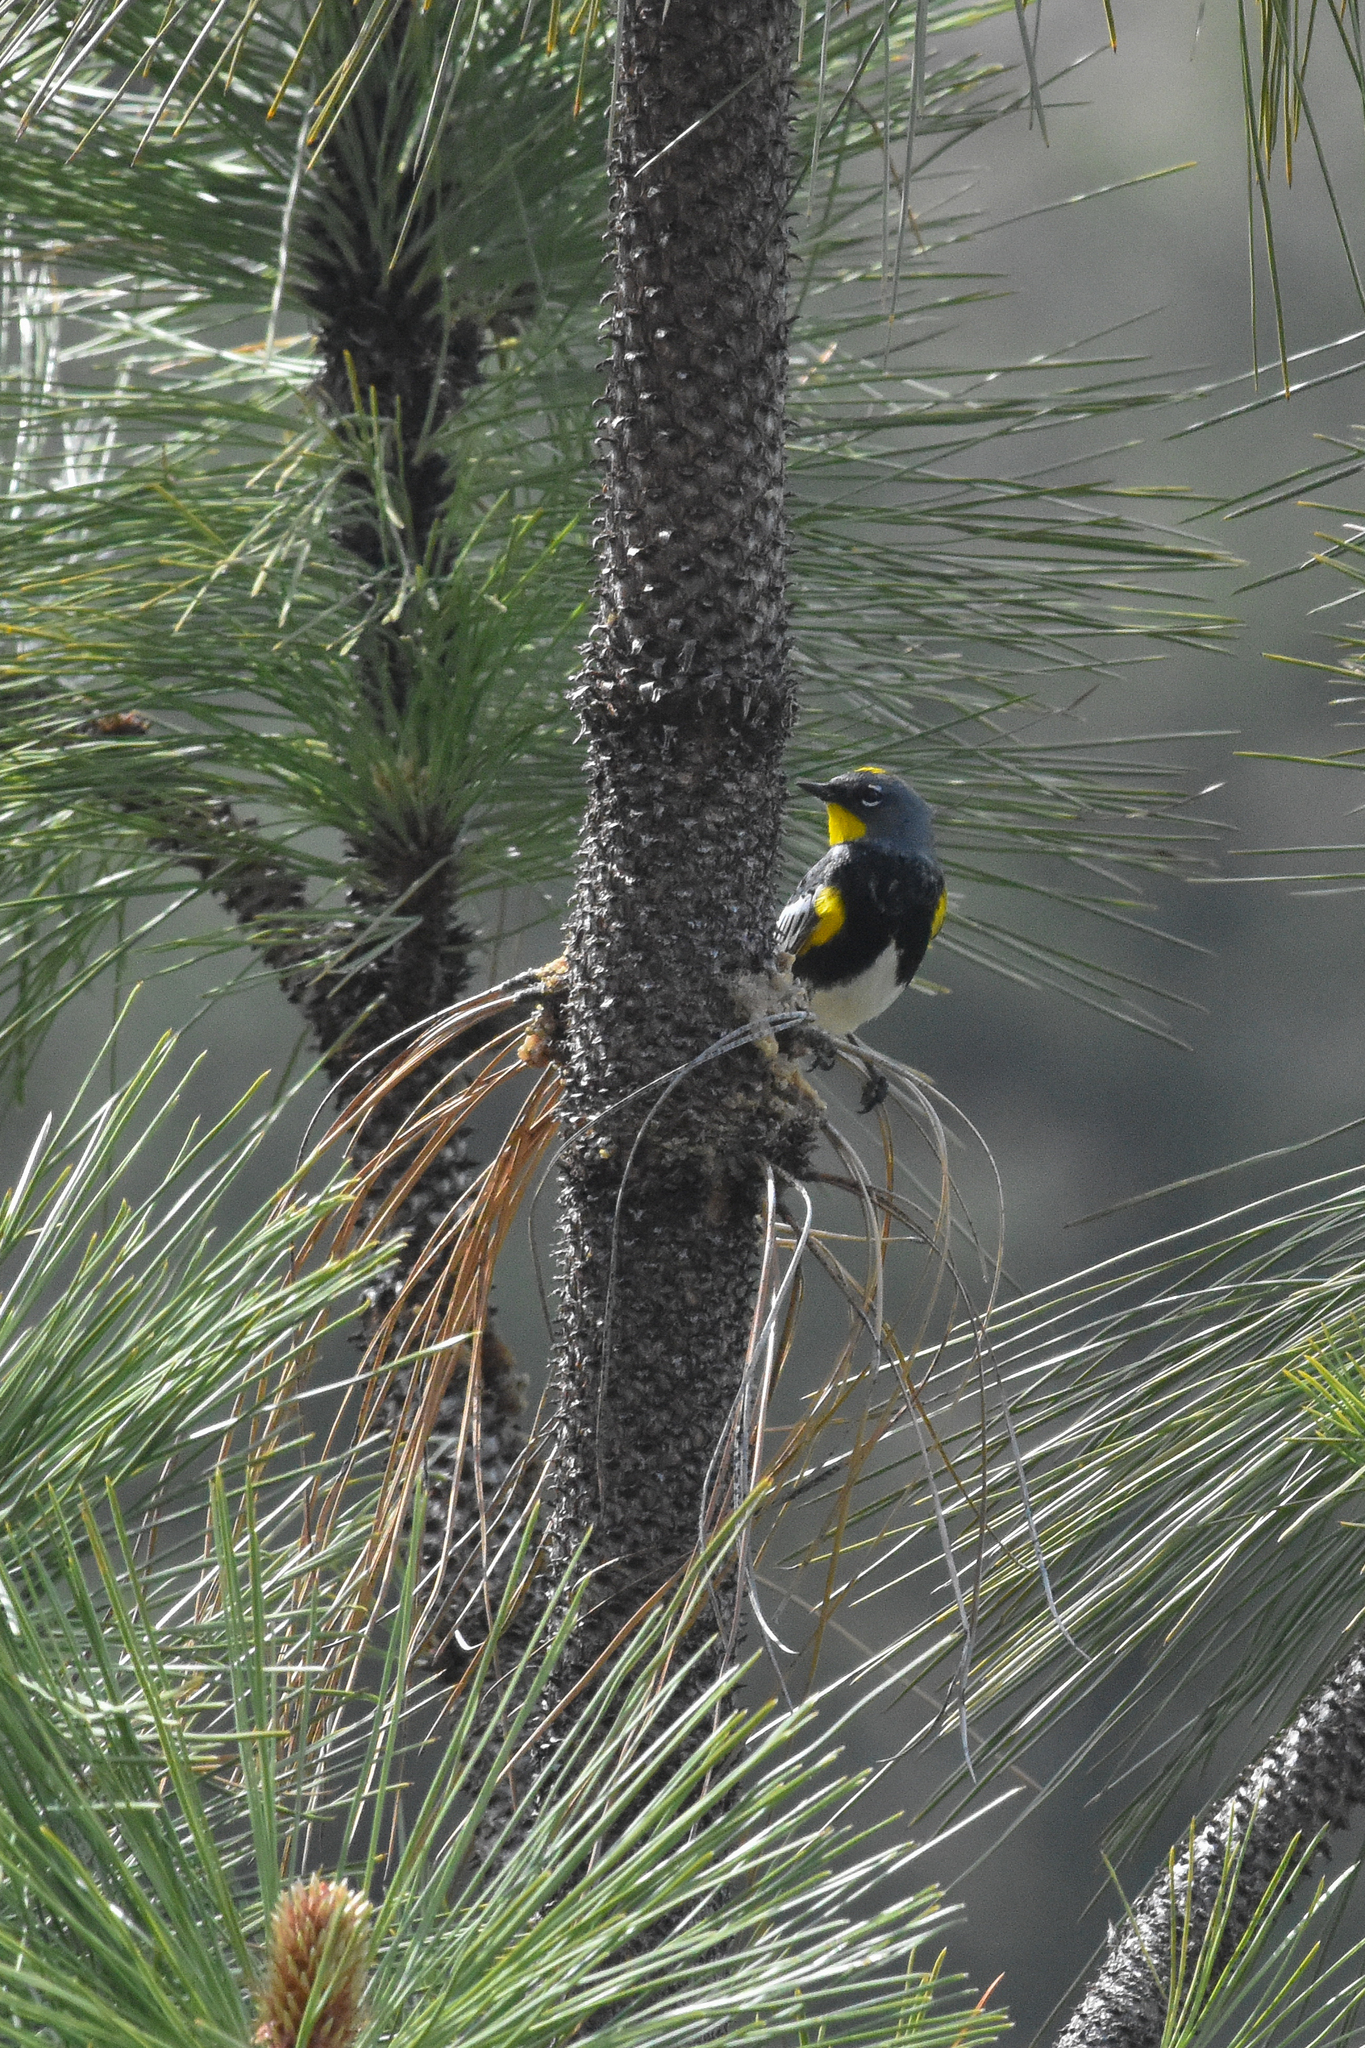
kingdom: Animalia
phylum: Chordata
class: Aves
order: Passeriformes
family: Parulidae
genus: Setophaga
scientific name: Setophaga auduboni
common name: Audubon's warbler
